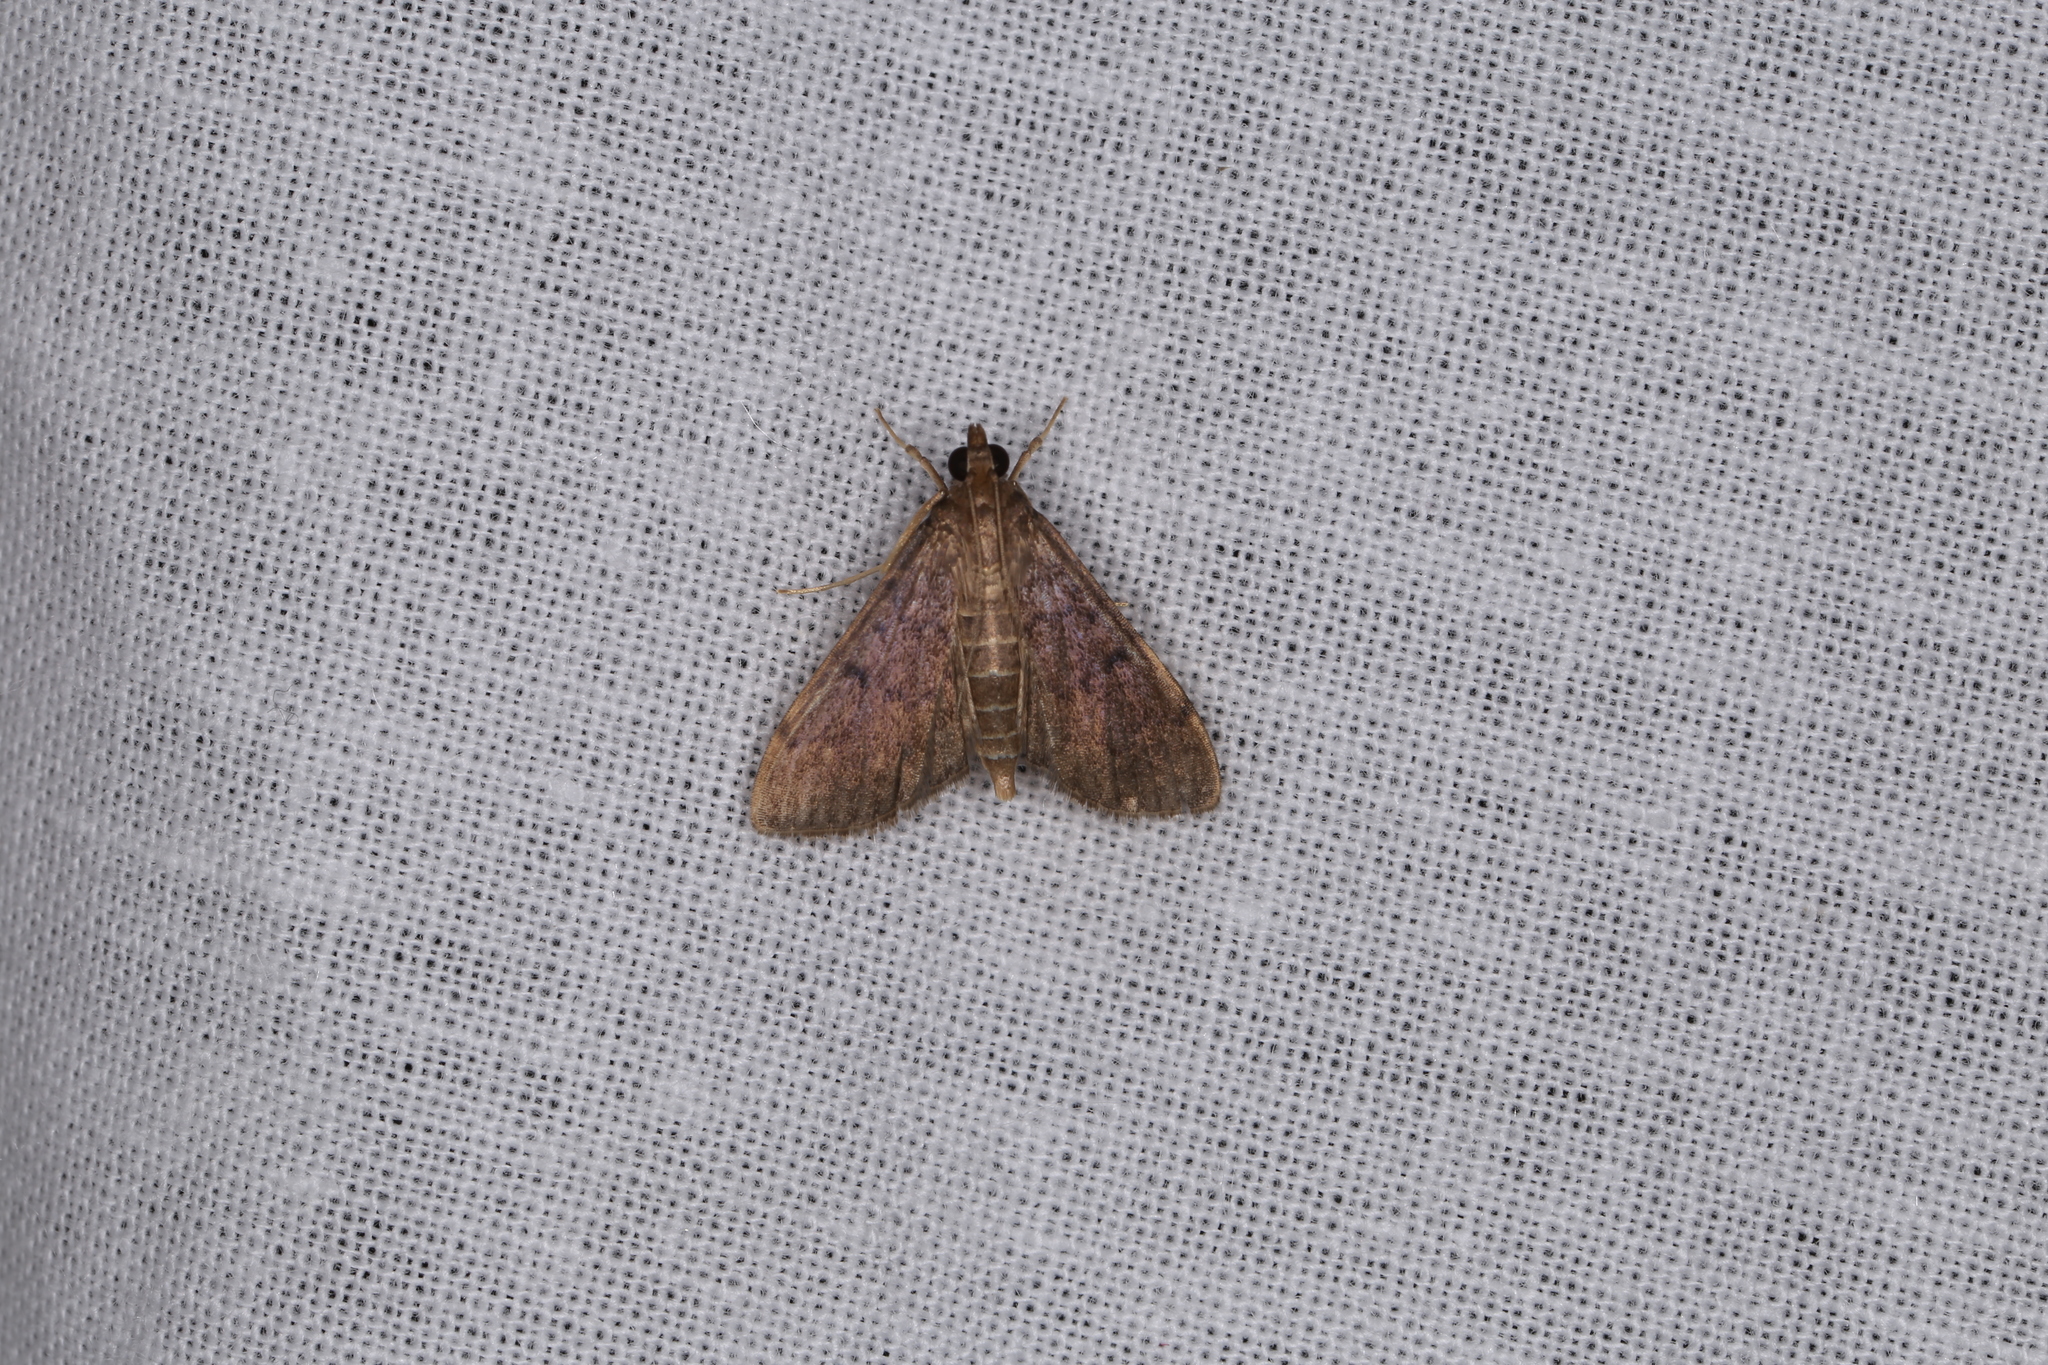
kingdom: Animalia
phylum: Arthropoda
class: Insecta
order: Lepidoptera
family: Crambidae
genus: Herpetogramma
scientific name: Herpetogramma phaeopteralis
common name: Dusky herpetogramma moth
